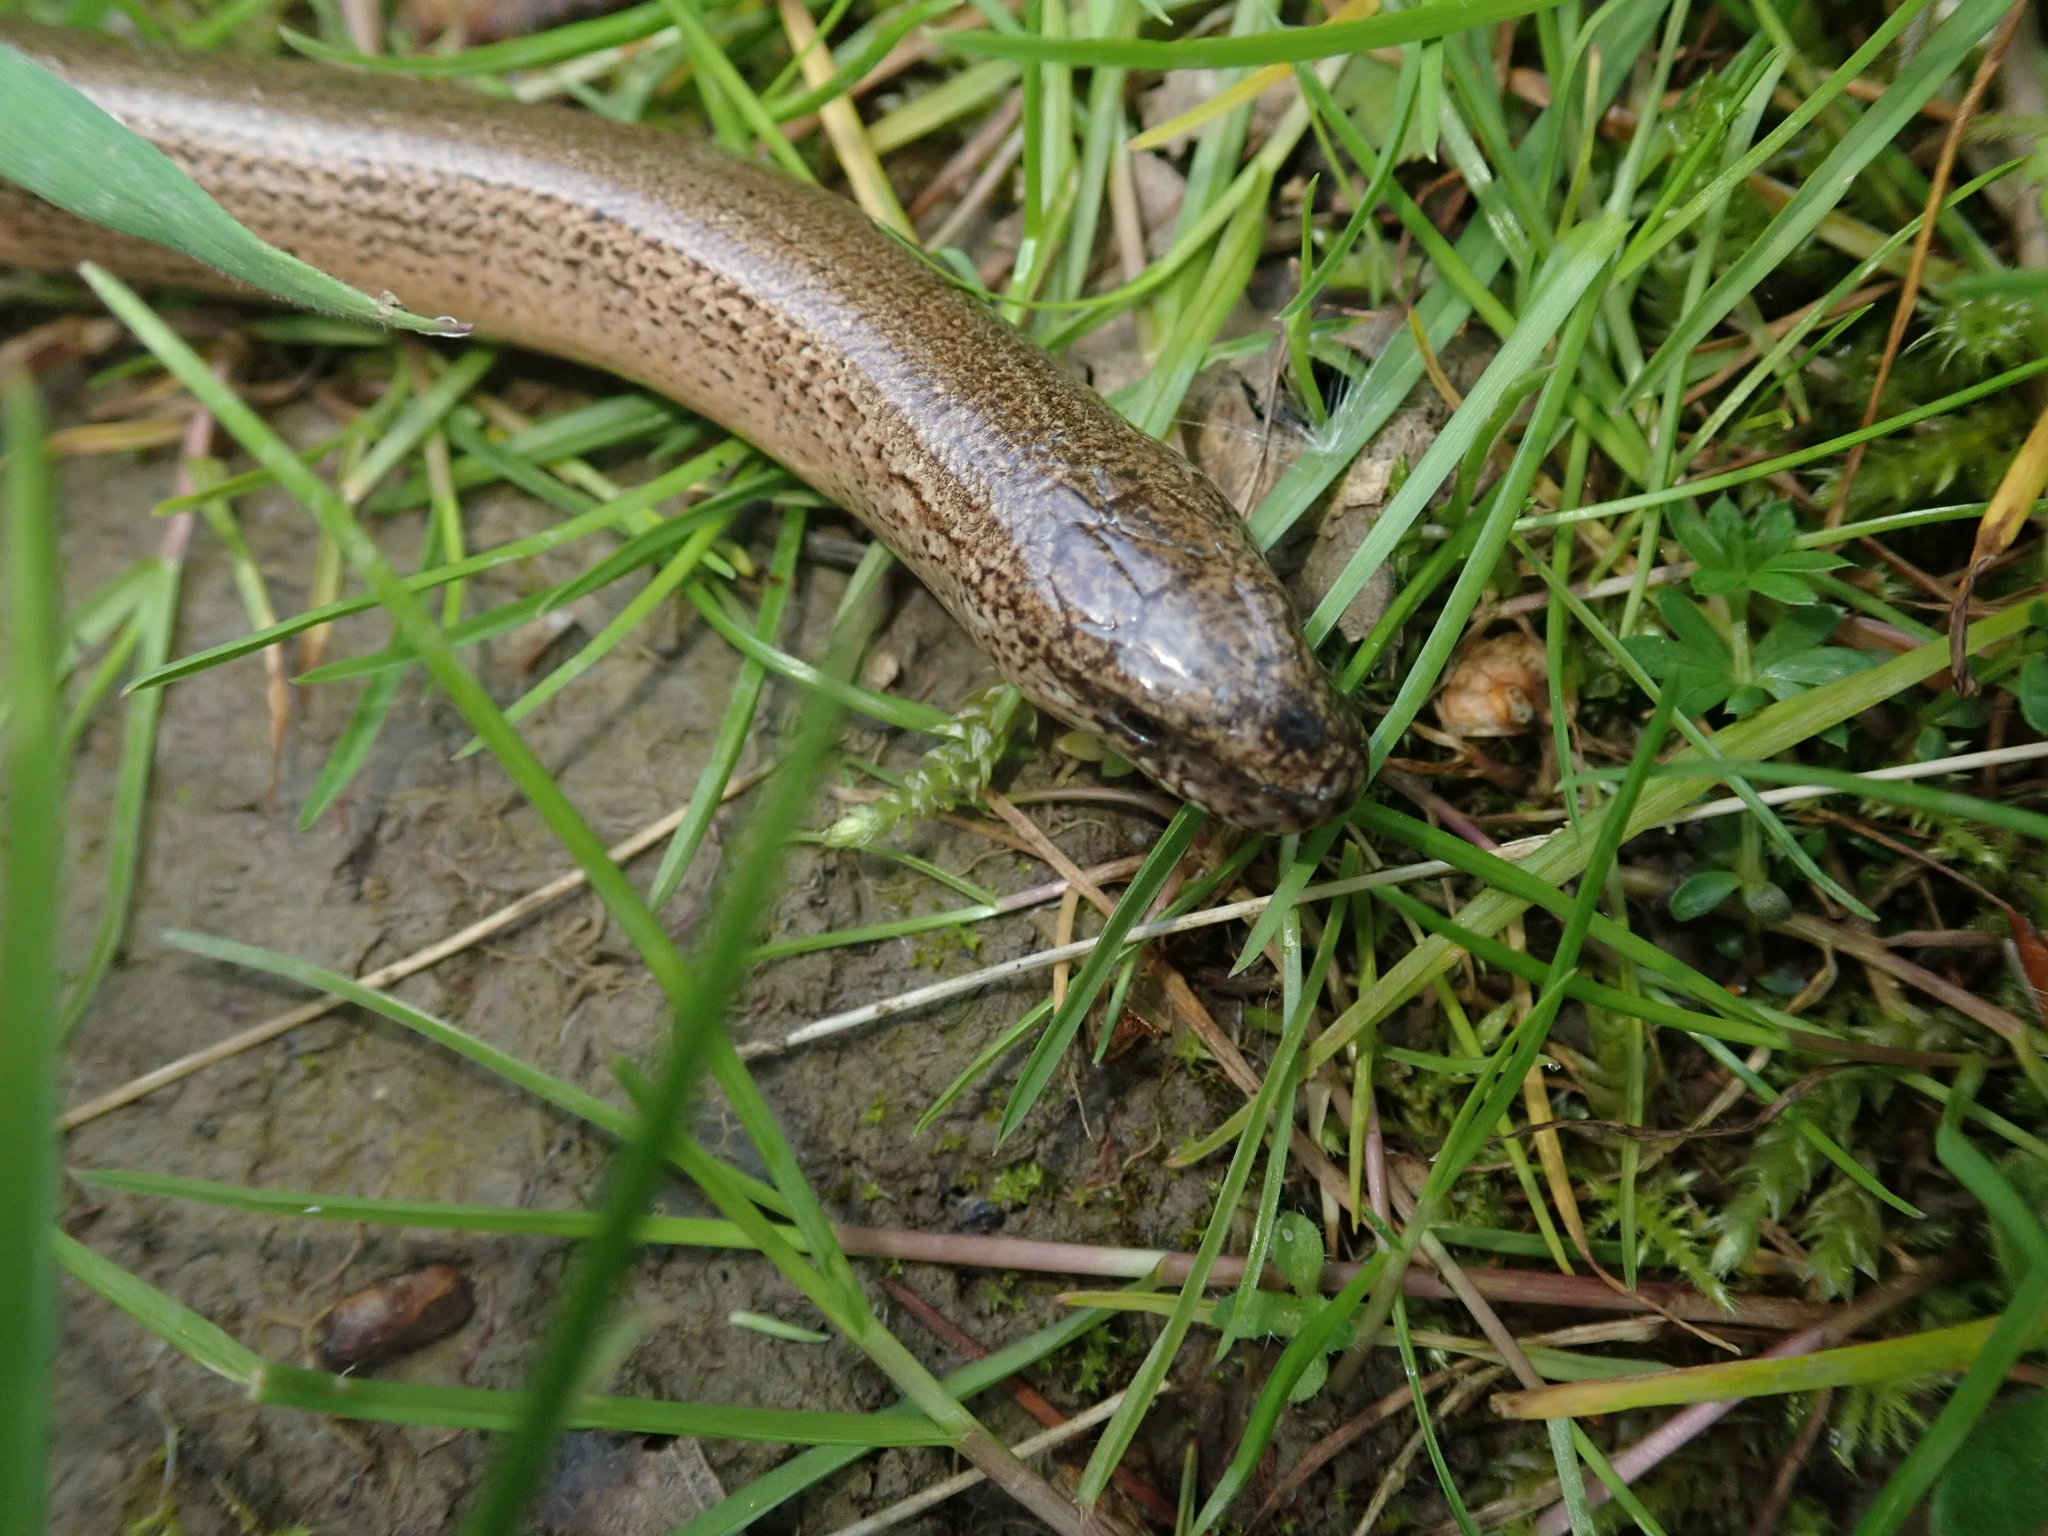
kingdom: Animalia
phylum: Chordata
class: Squamata
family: Anguidae
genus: Anguis
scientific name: Anguis fragilis
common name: Slow worm
